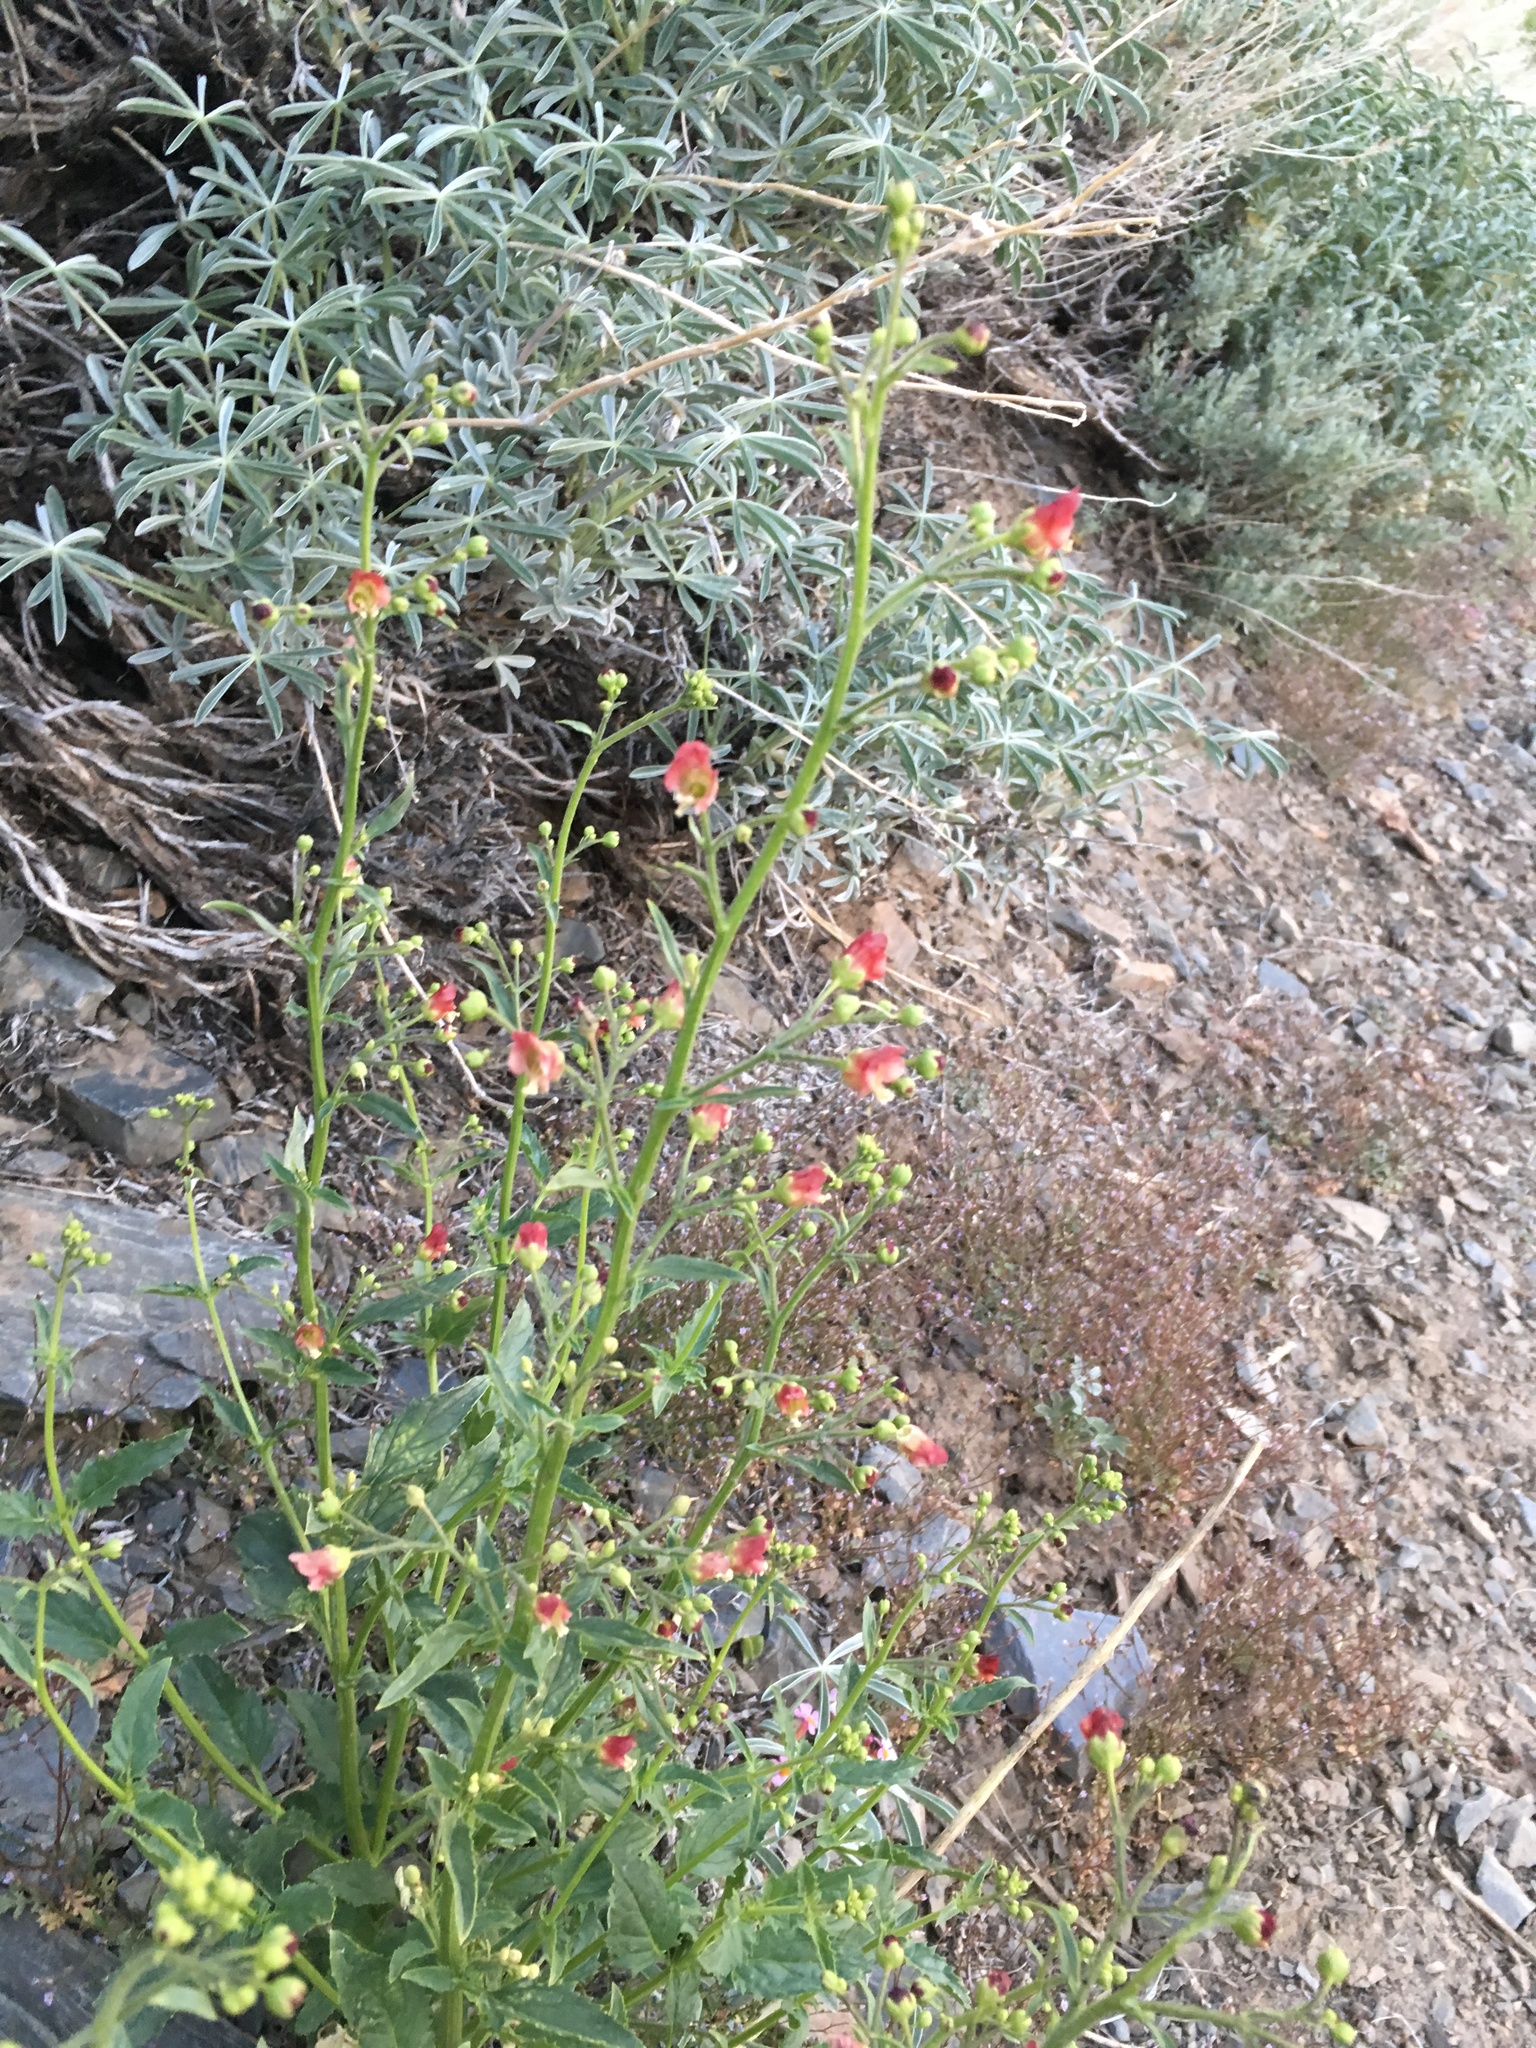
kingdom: Plantae
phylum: Tracheophyta
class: Magnoliopsida
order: Lamiales
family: Scrophulariaceae
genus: Scrophularia
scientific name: Scrophularia desertorum
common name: Desert figwort
